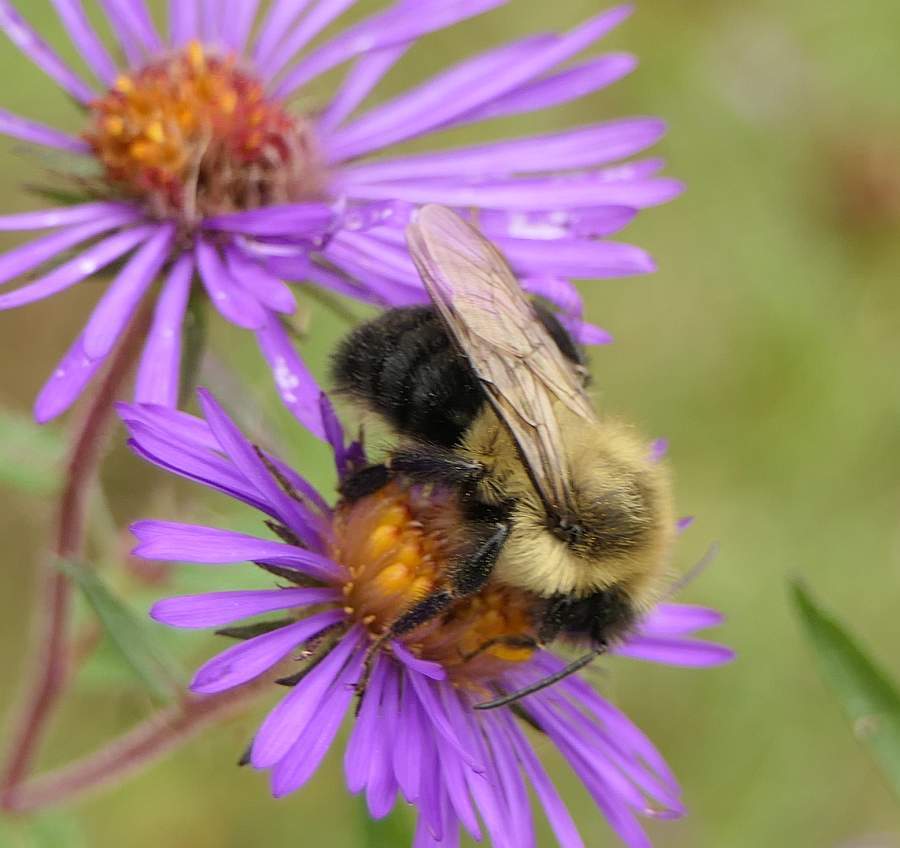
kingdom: Animalia
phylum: Arthropoda
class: Insecta
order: Hymenoptera
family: Apidae
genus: Bombus
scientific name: Bombus impatiens
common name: Common eastern bumble bee
